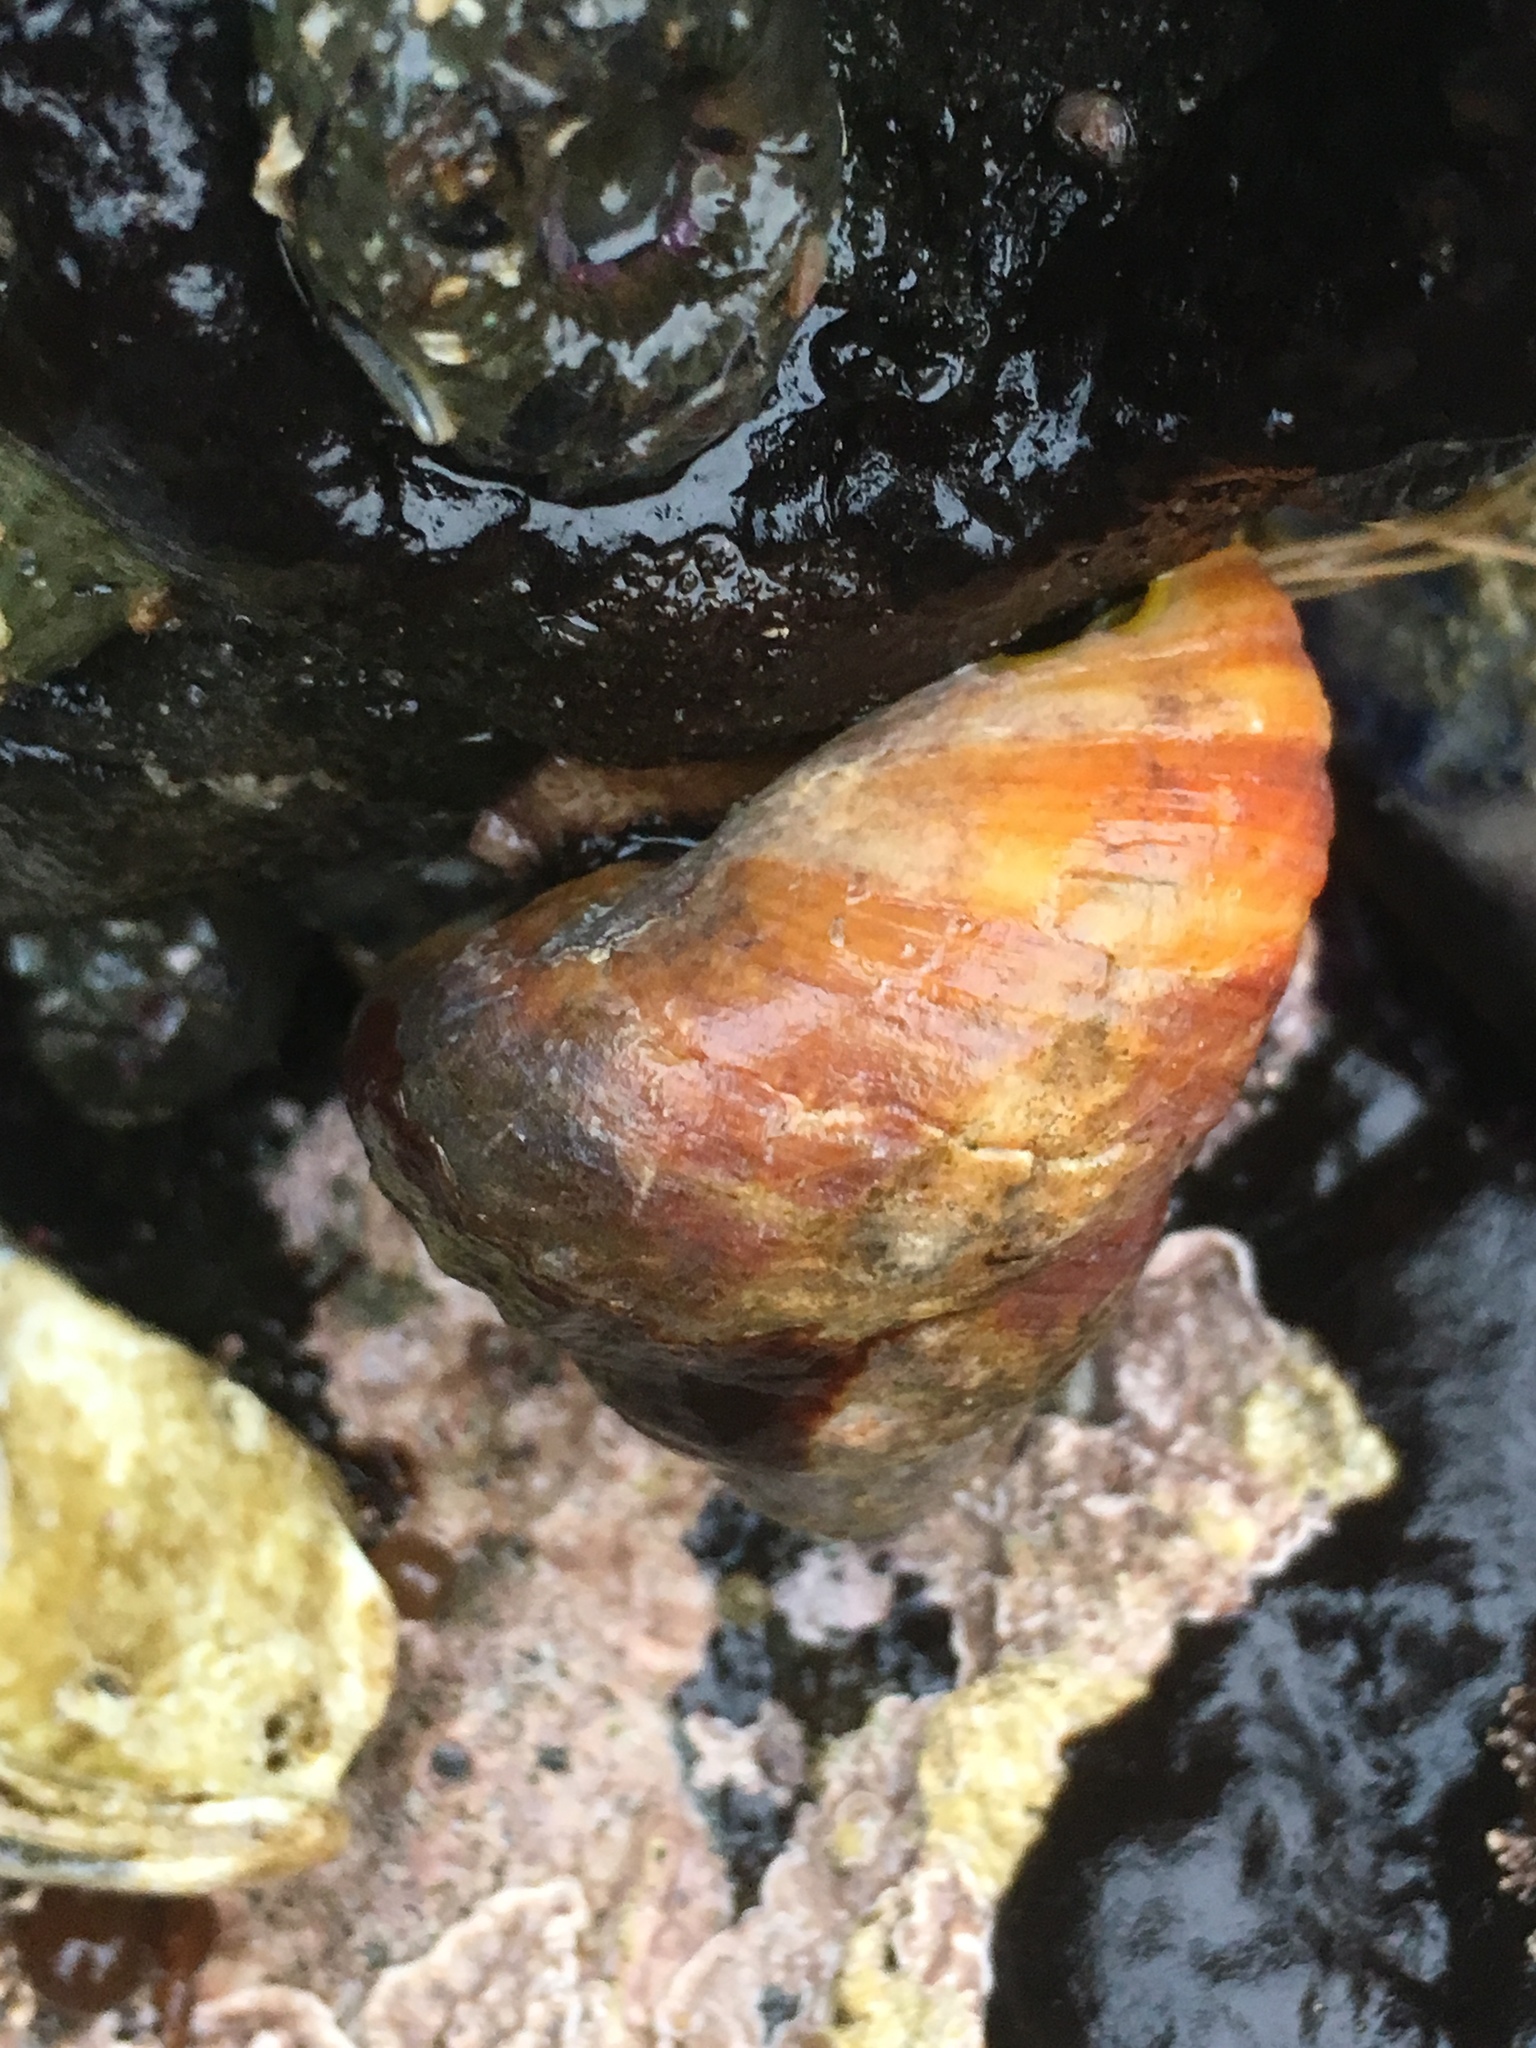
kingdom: Animalia
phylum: Mollusca
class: Gastropoda
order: Trochida
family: Tegulidae
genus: Tegula
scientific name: Tegula brunnea
